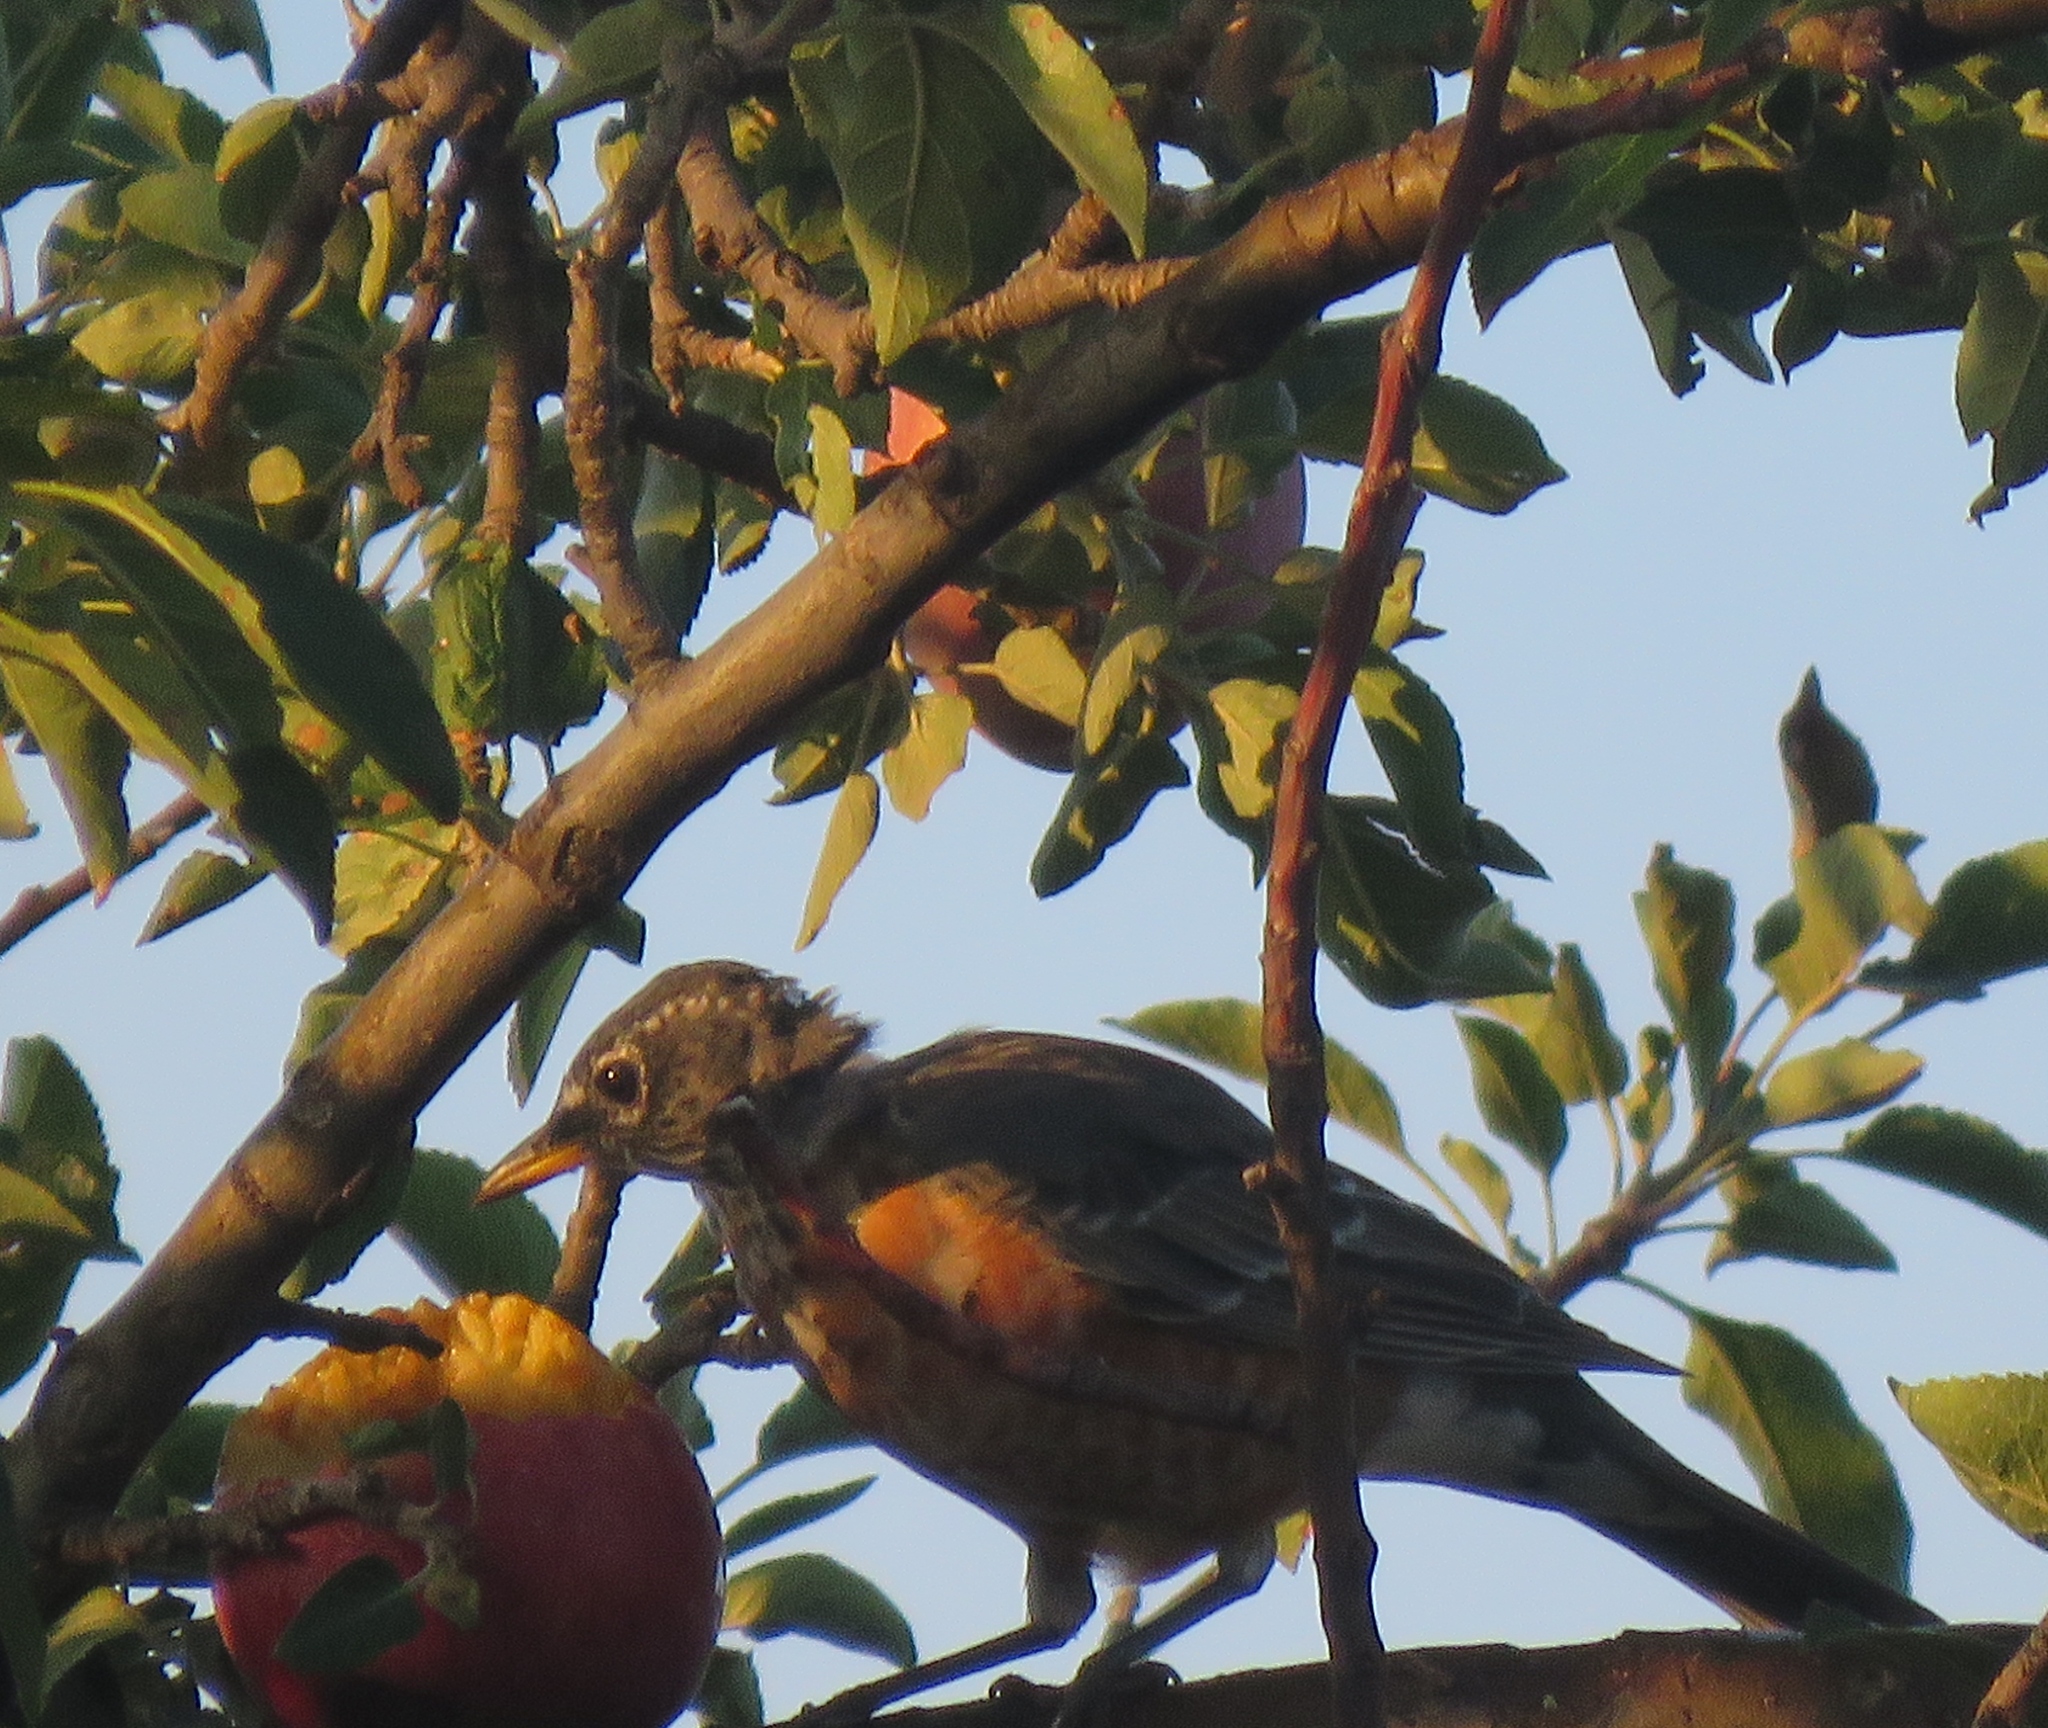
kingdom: Animalia
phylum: Chordata
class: Aves
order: Passeriformes
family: Turdidae
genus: Turdus
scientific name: Turdus migratorius
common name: American robin
